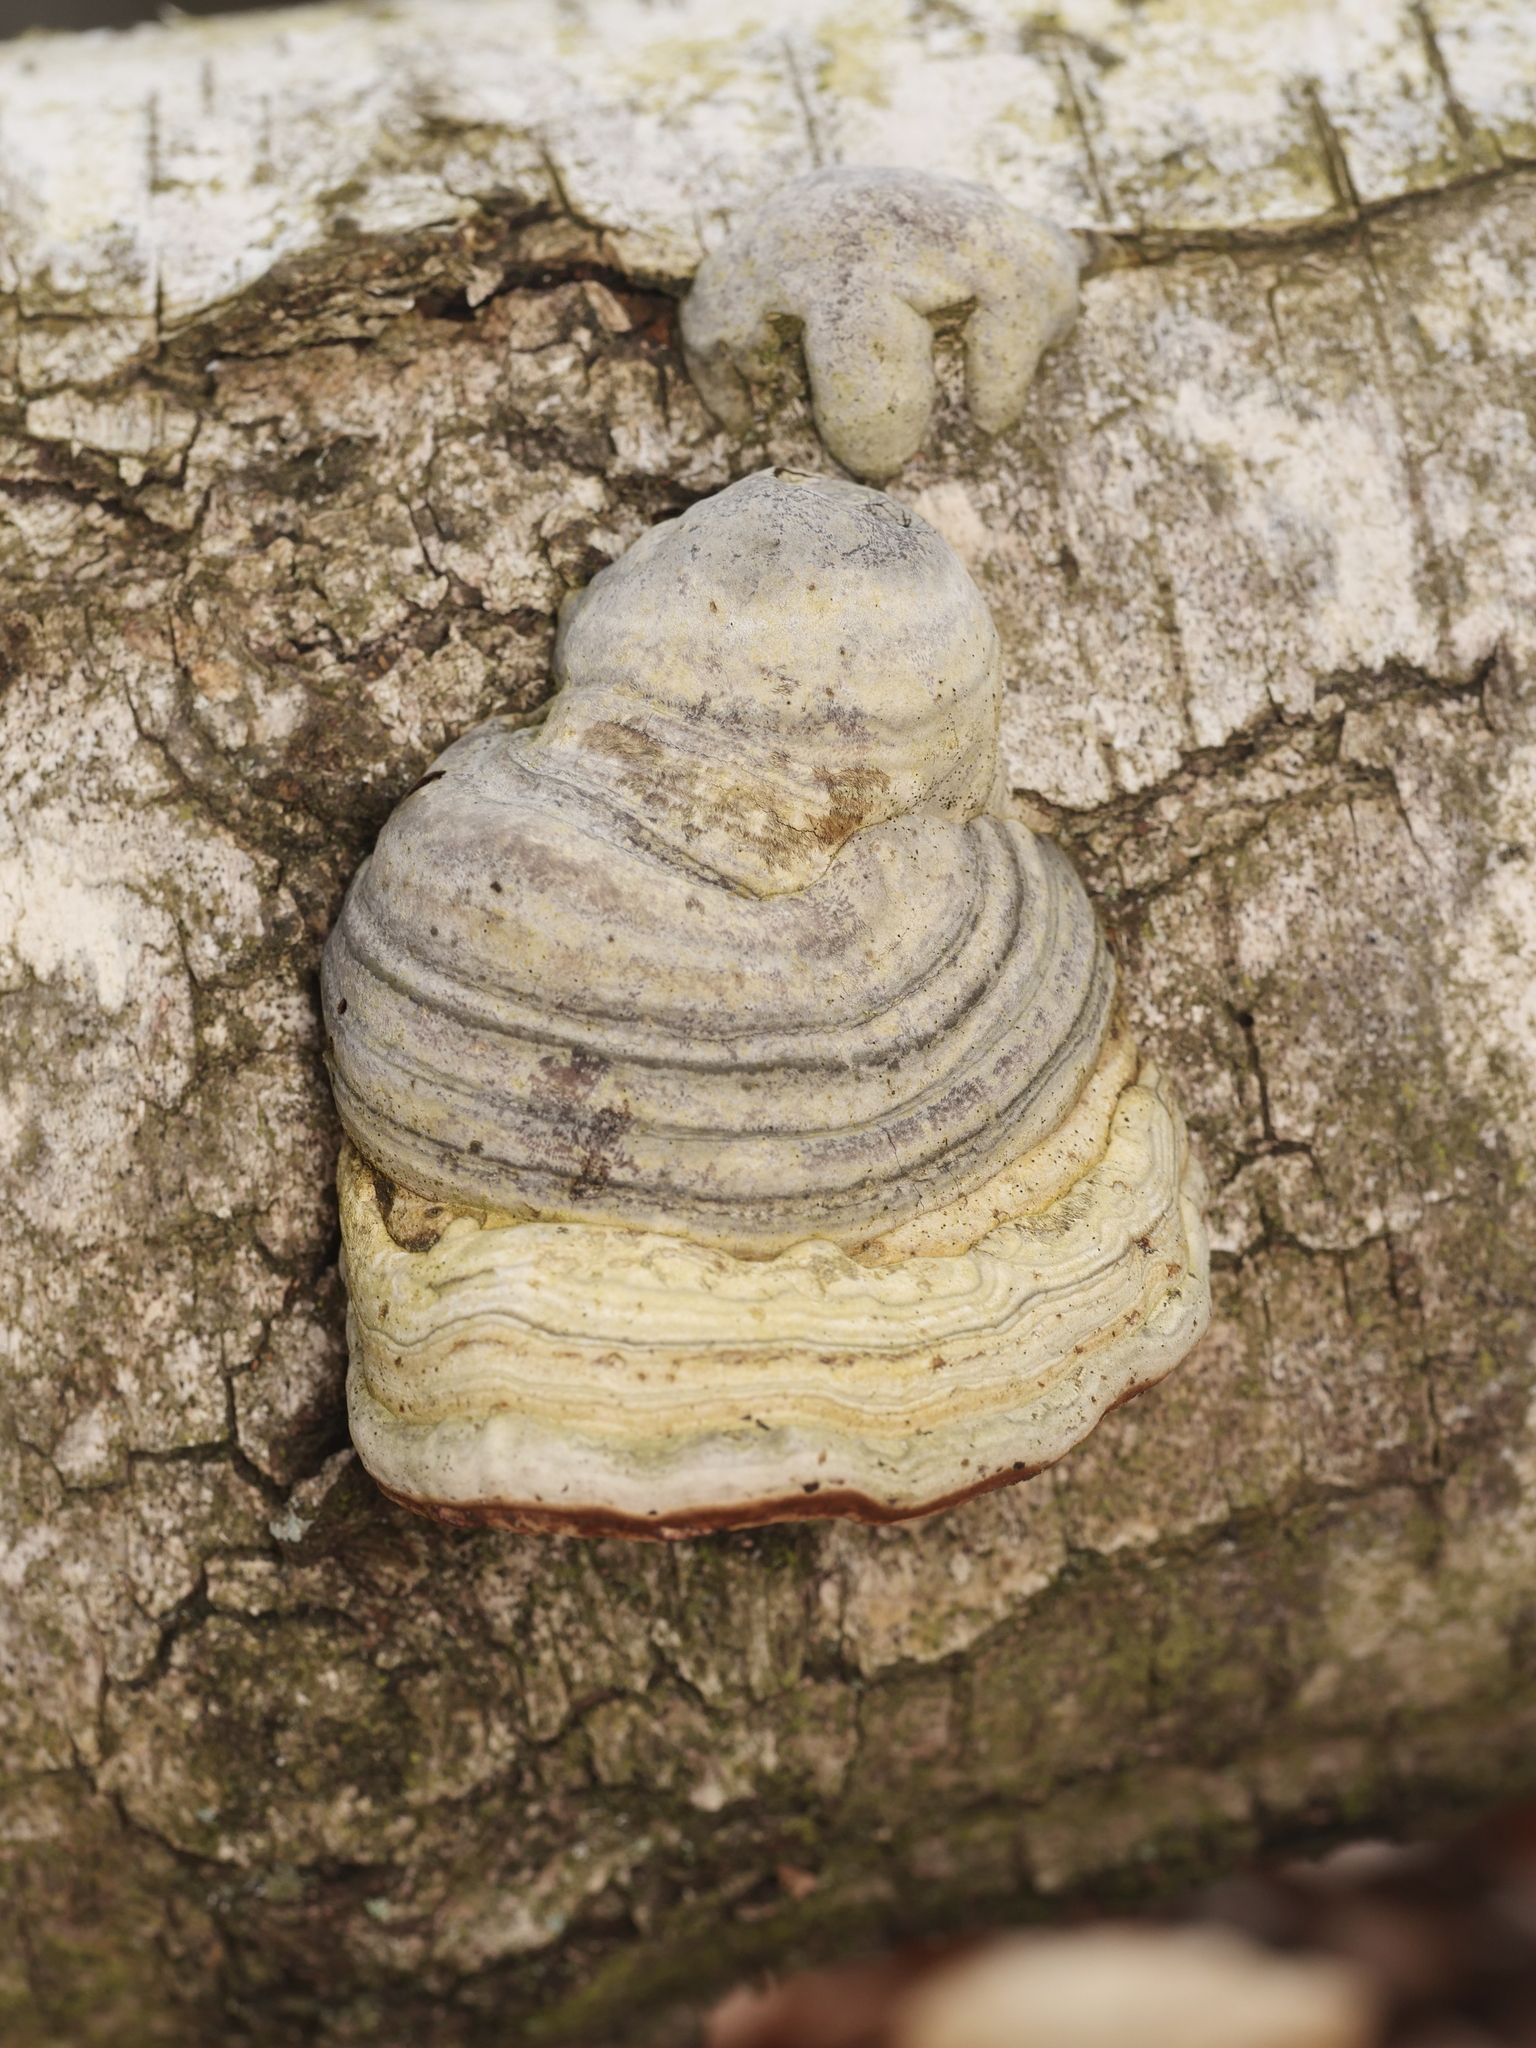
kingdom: Fungi
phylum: Basidiomycota
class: Agaricomycetes
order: Polyporales
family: Polyporaceae
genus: Fomes
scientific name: Fomes fomentarius
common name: Hoof fungus
